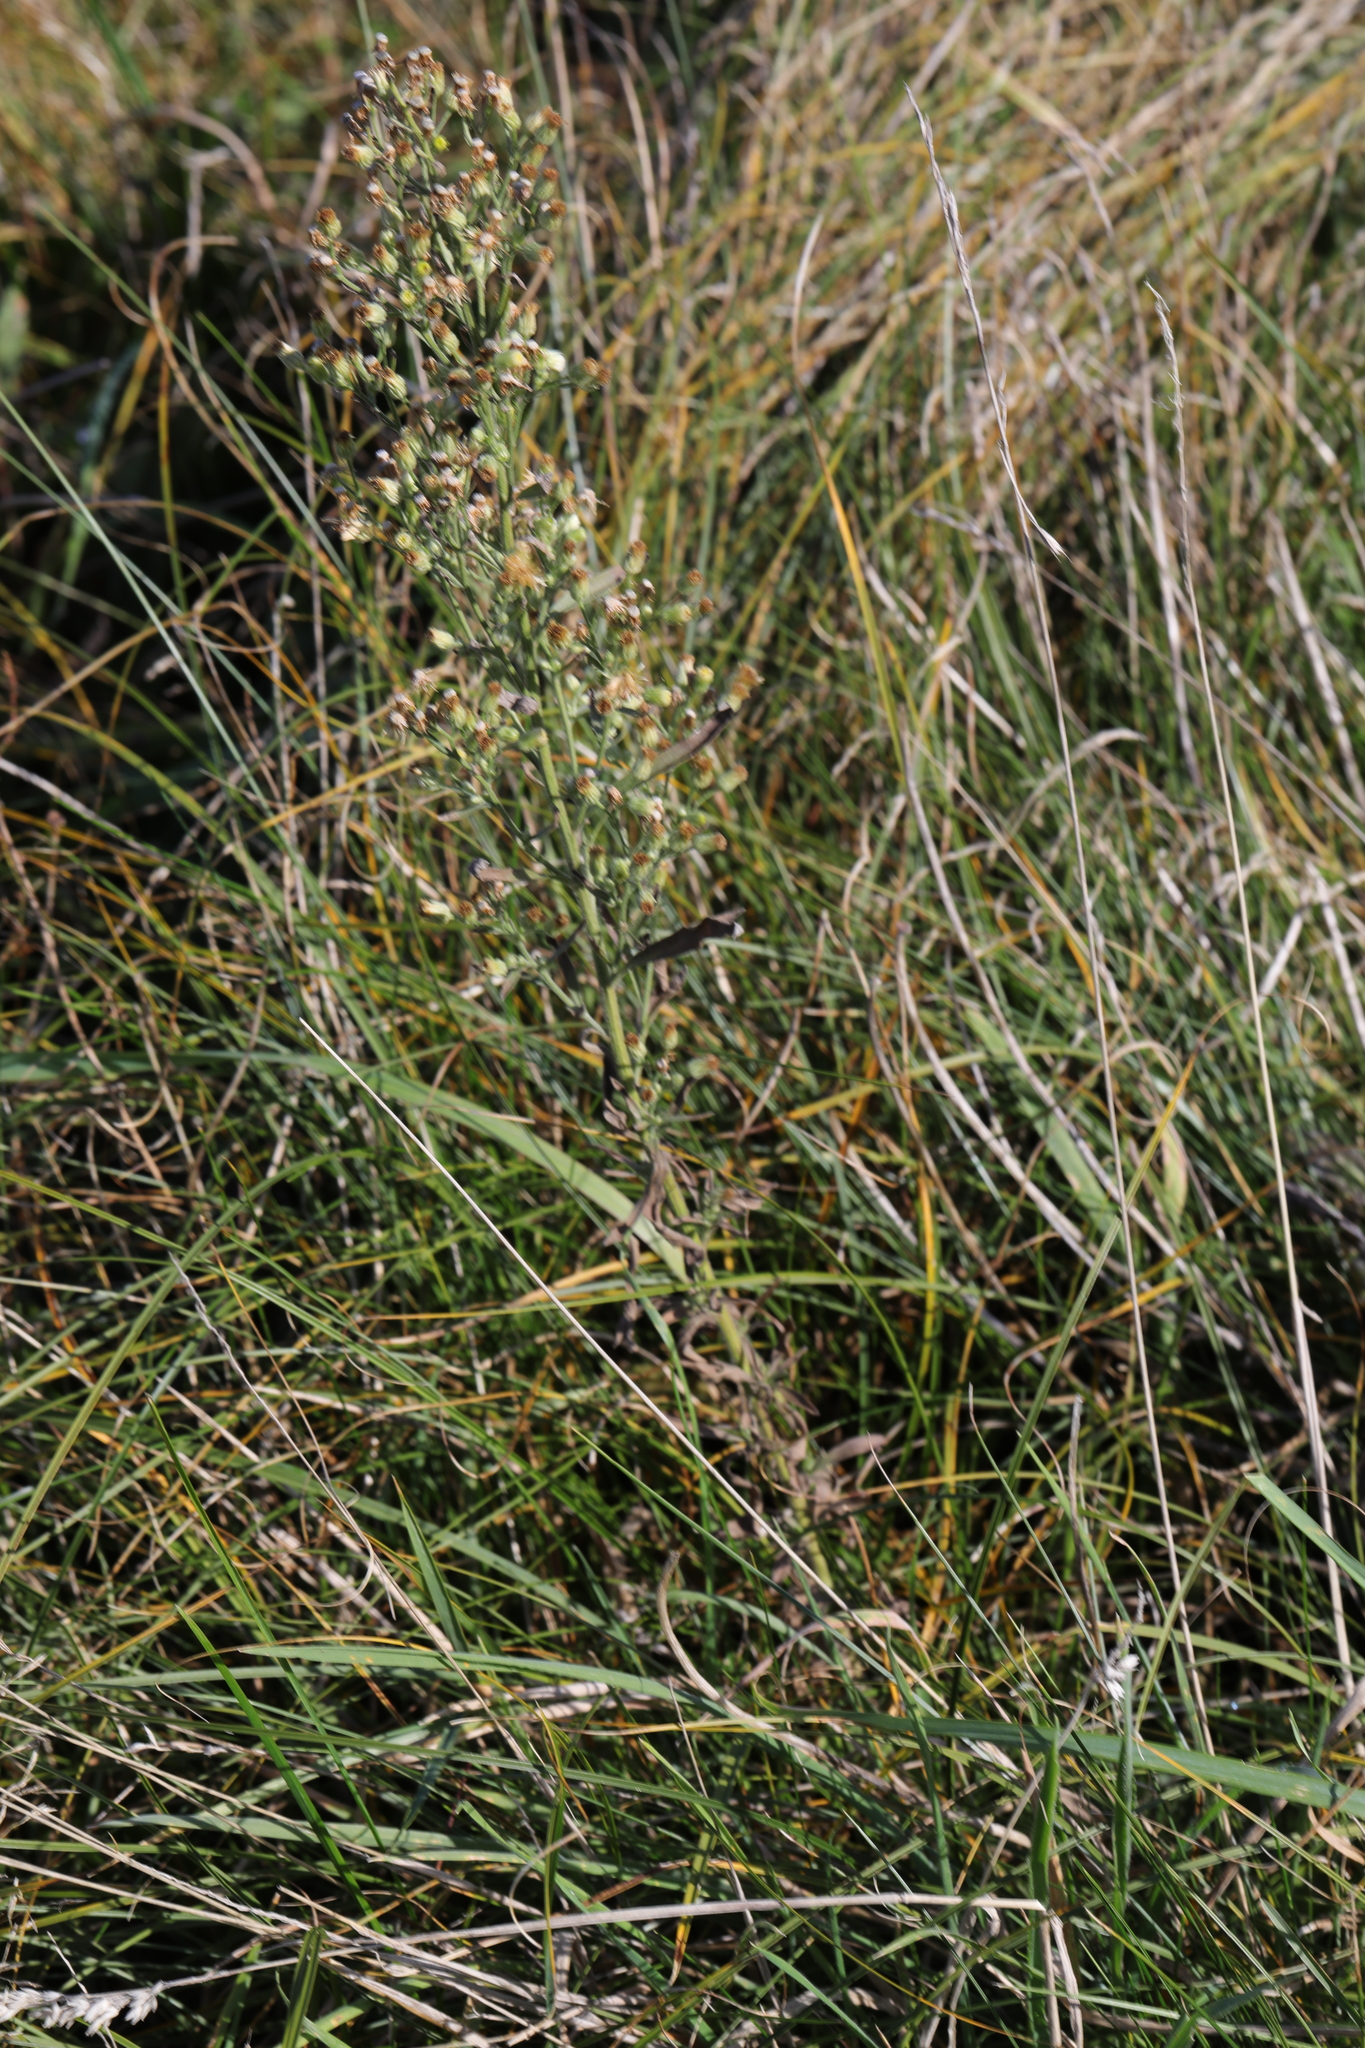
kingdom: Plantae
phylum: Tracheophyta
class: Magnoliopsida
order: Asterales
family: Asteraceae
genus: Erigeron
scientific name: Erigeron canadensis
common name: Canadian fleabane
